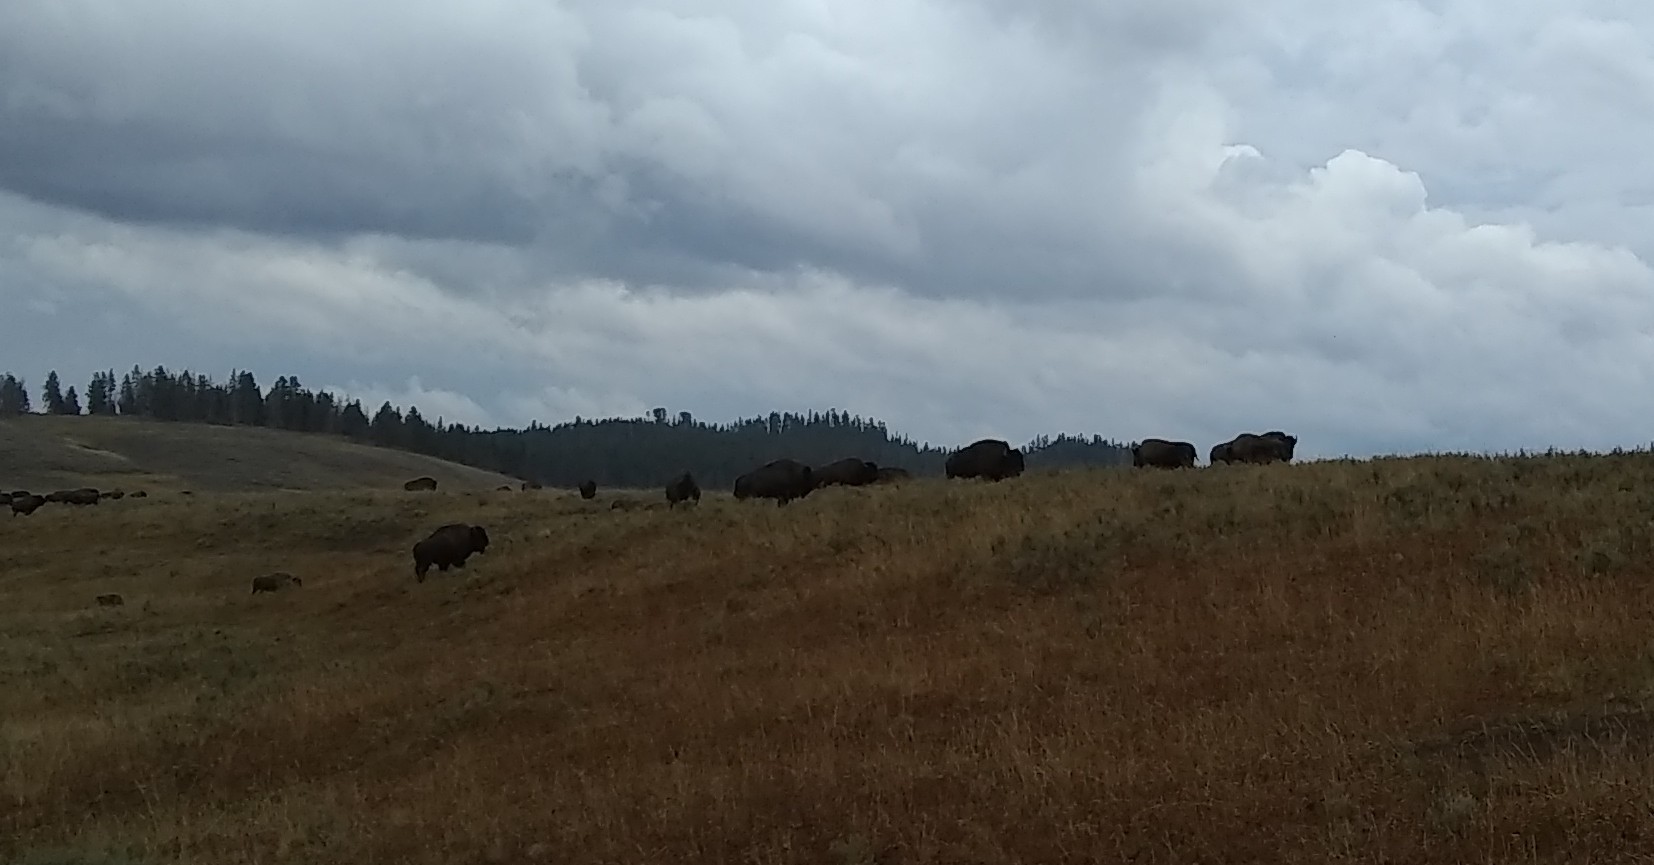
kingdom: Animalia
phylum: Chordata
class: Mammalia
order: Artiodactyla
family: Bovidae
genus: Bison
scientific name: Bison bison
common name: American bison
